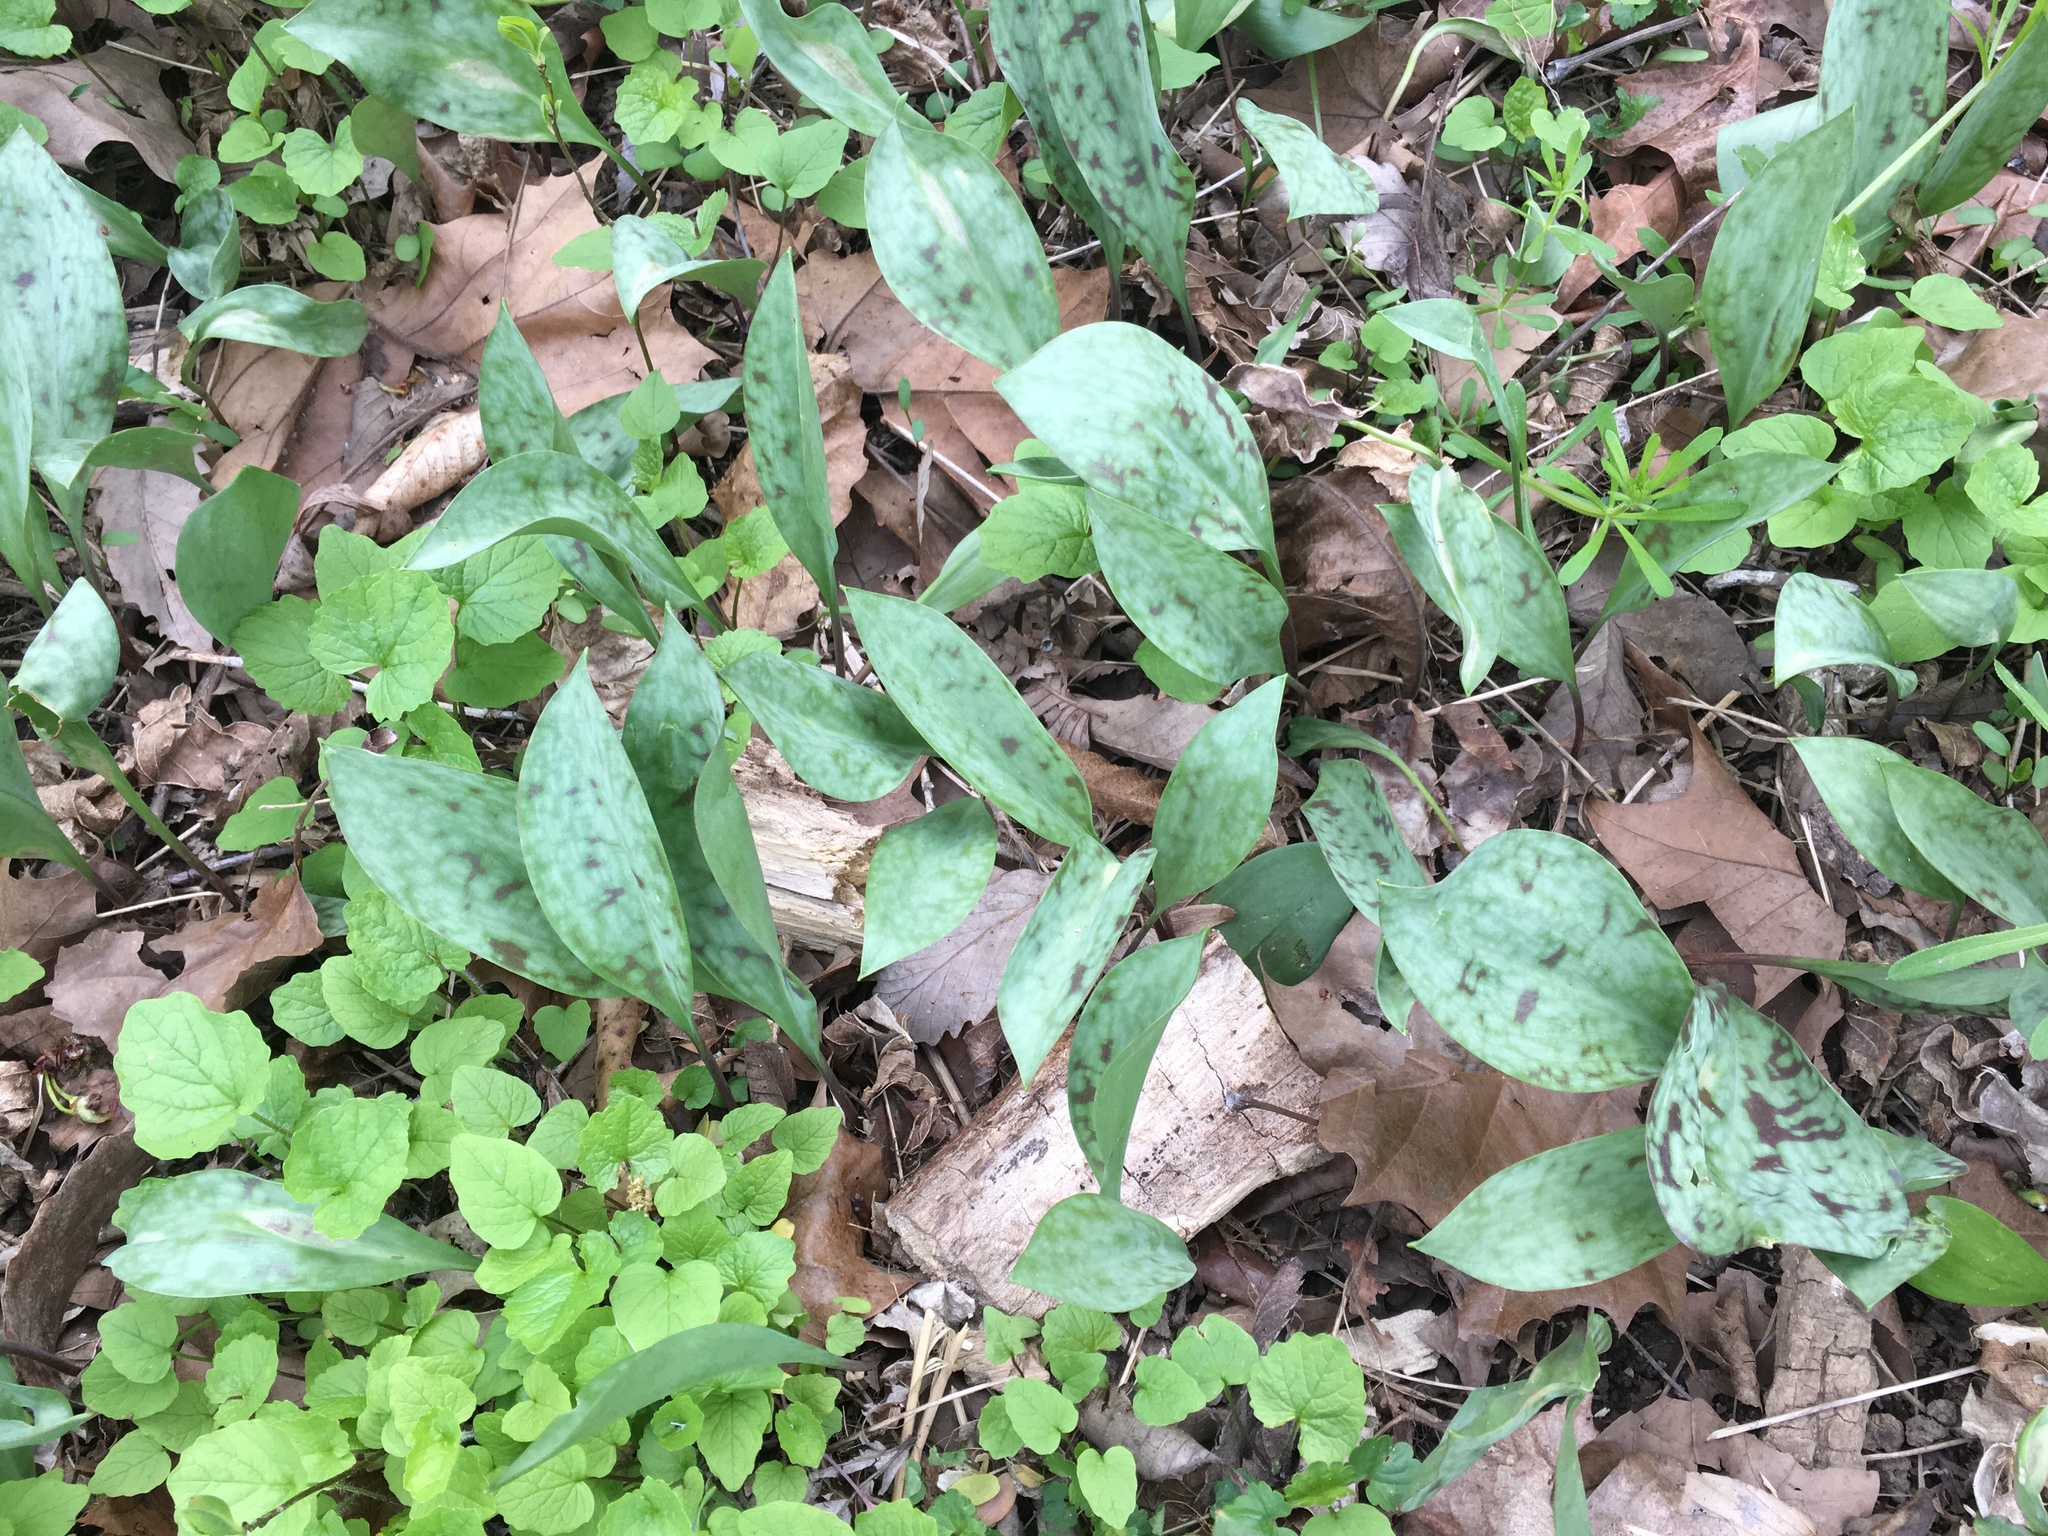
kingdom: Plantae
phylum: Tracheophyta
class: Liliopsida
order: Liliales
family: Liliaceae
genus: Erythronium
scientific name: Erythronium albidum
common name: White trout-lily
